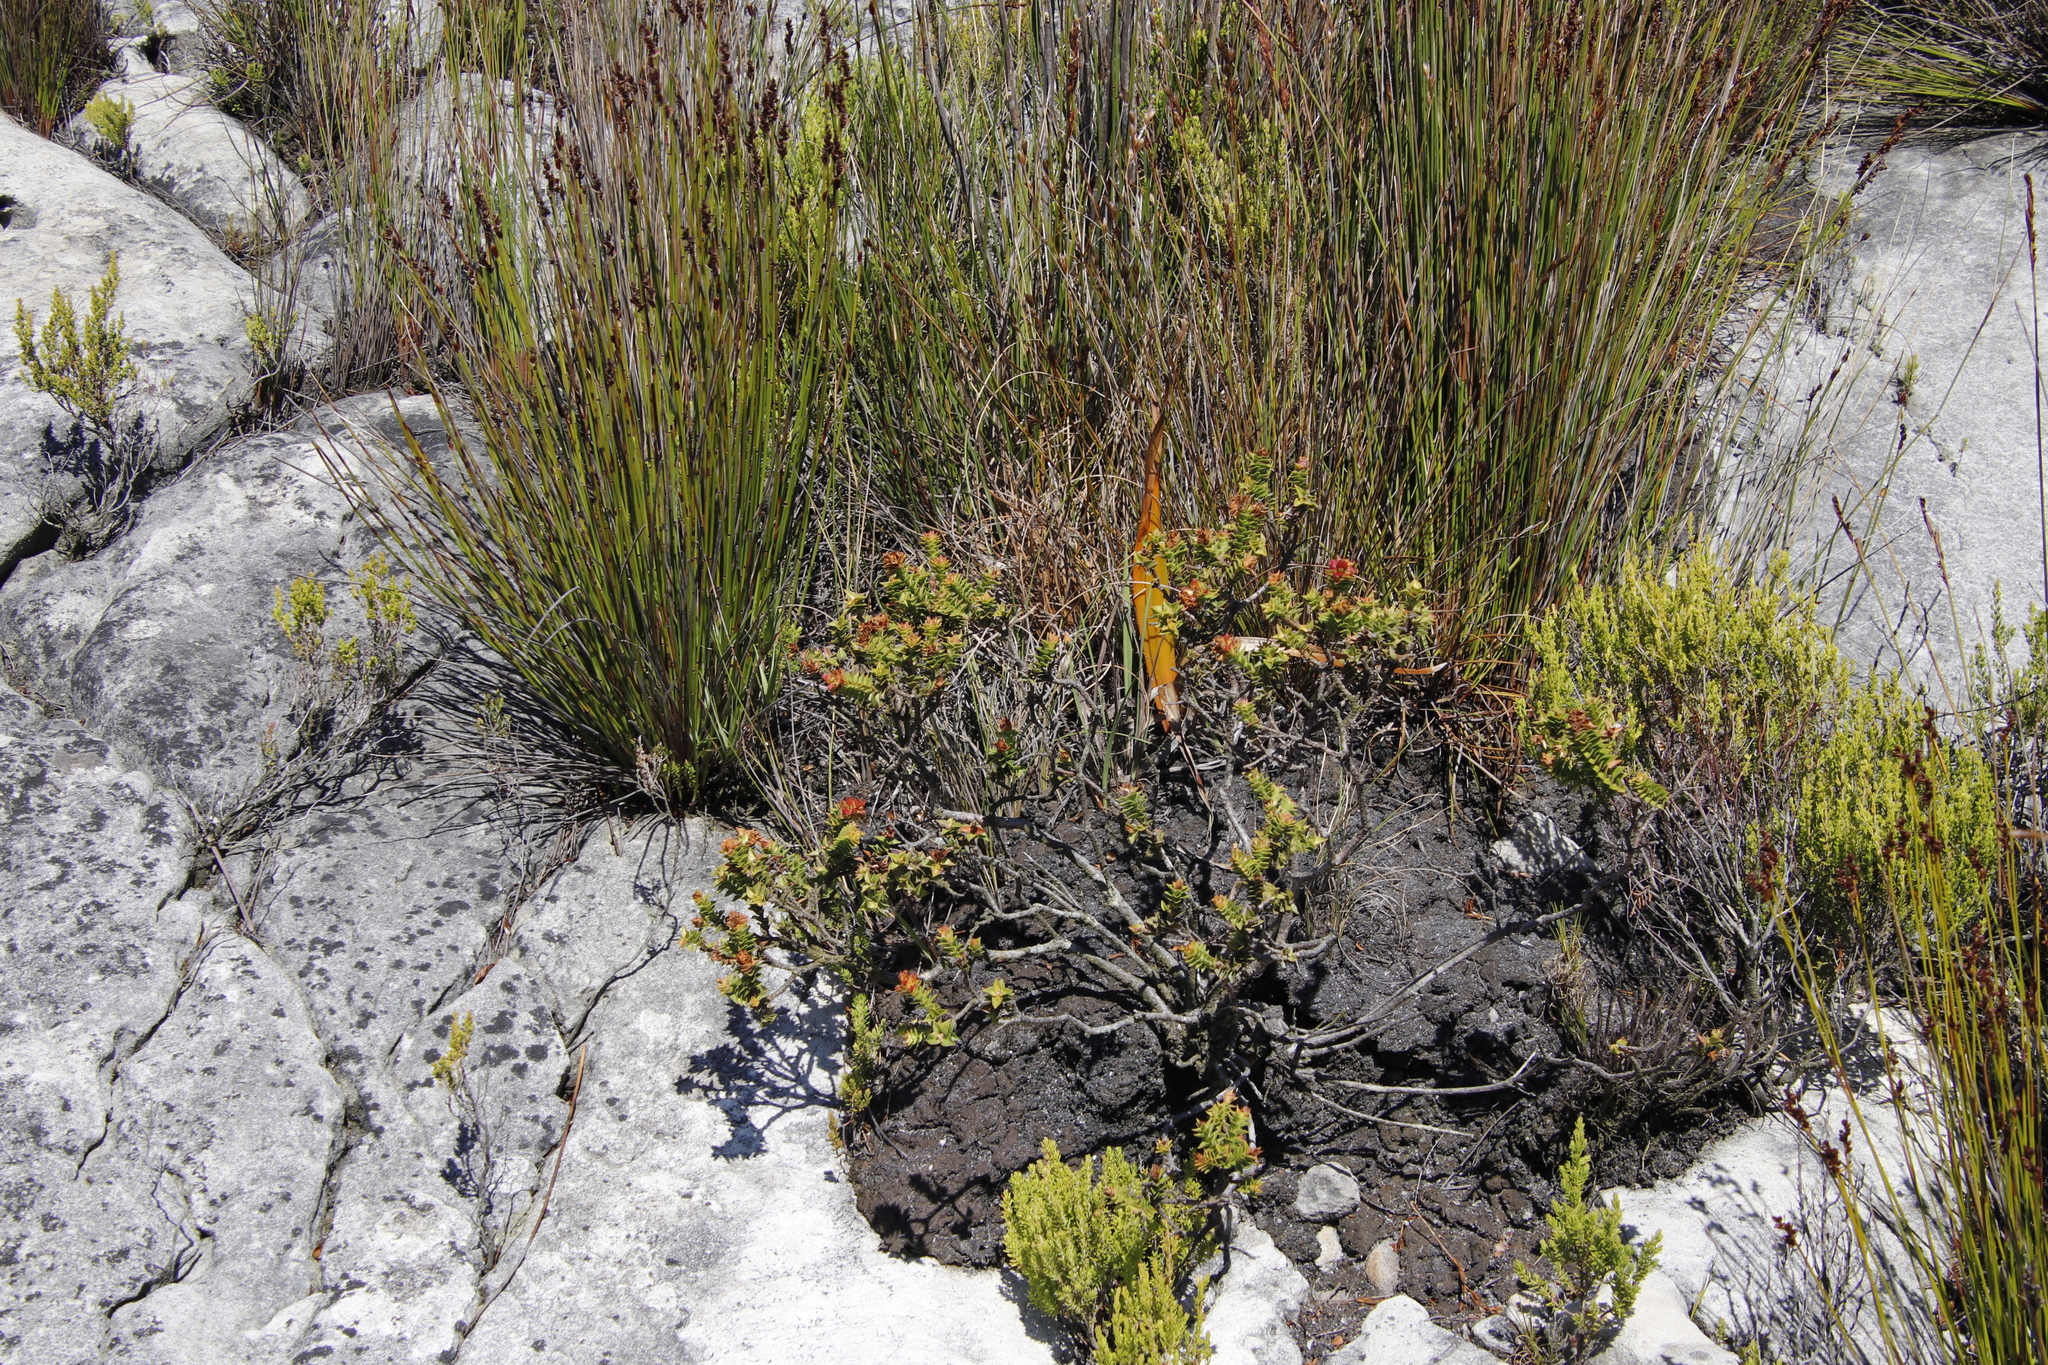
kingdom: Plantae
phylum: Tracheophyta
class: Magnoliopsida
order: Myrtales
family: Penaeaceae
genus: Penaea
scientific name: Penaea mucronata
